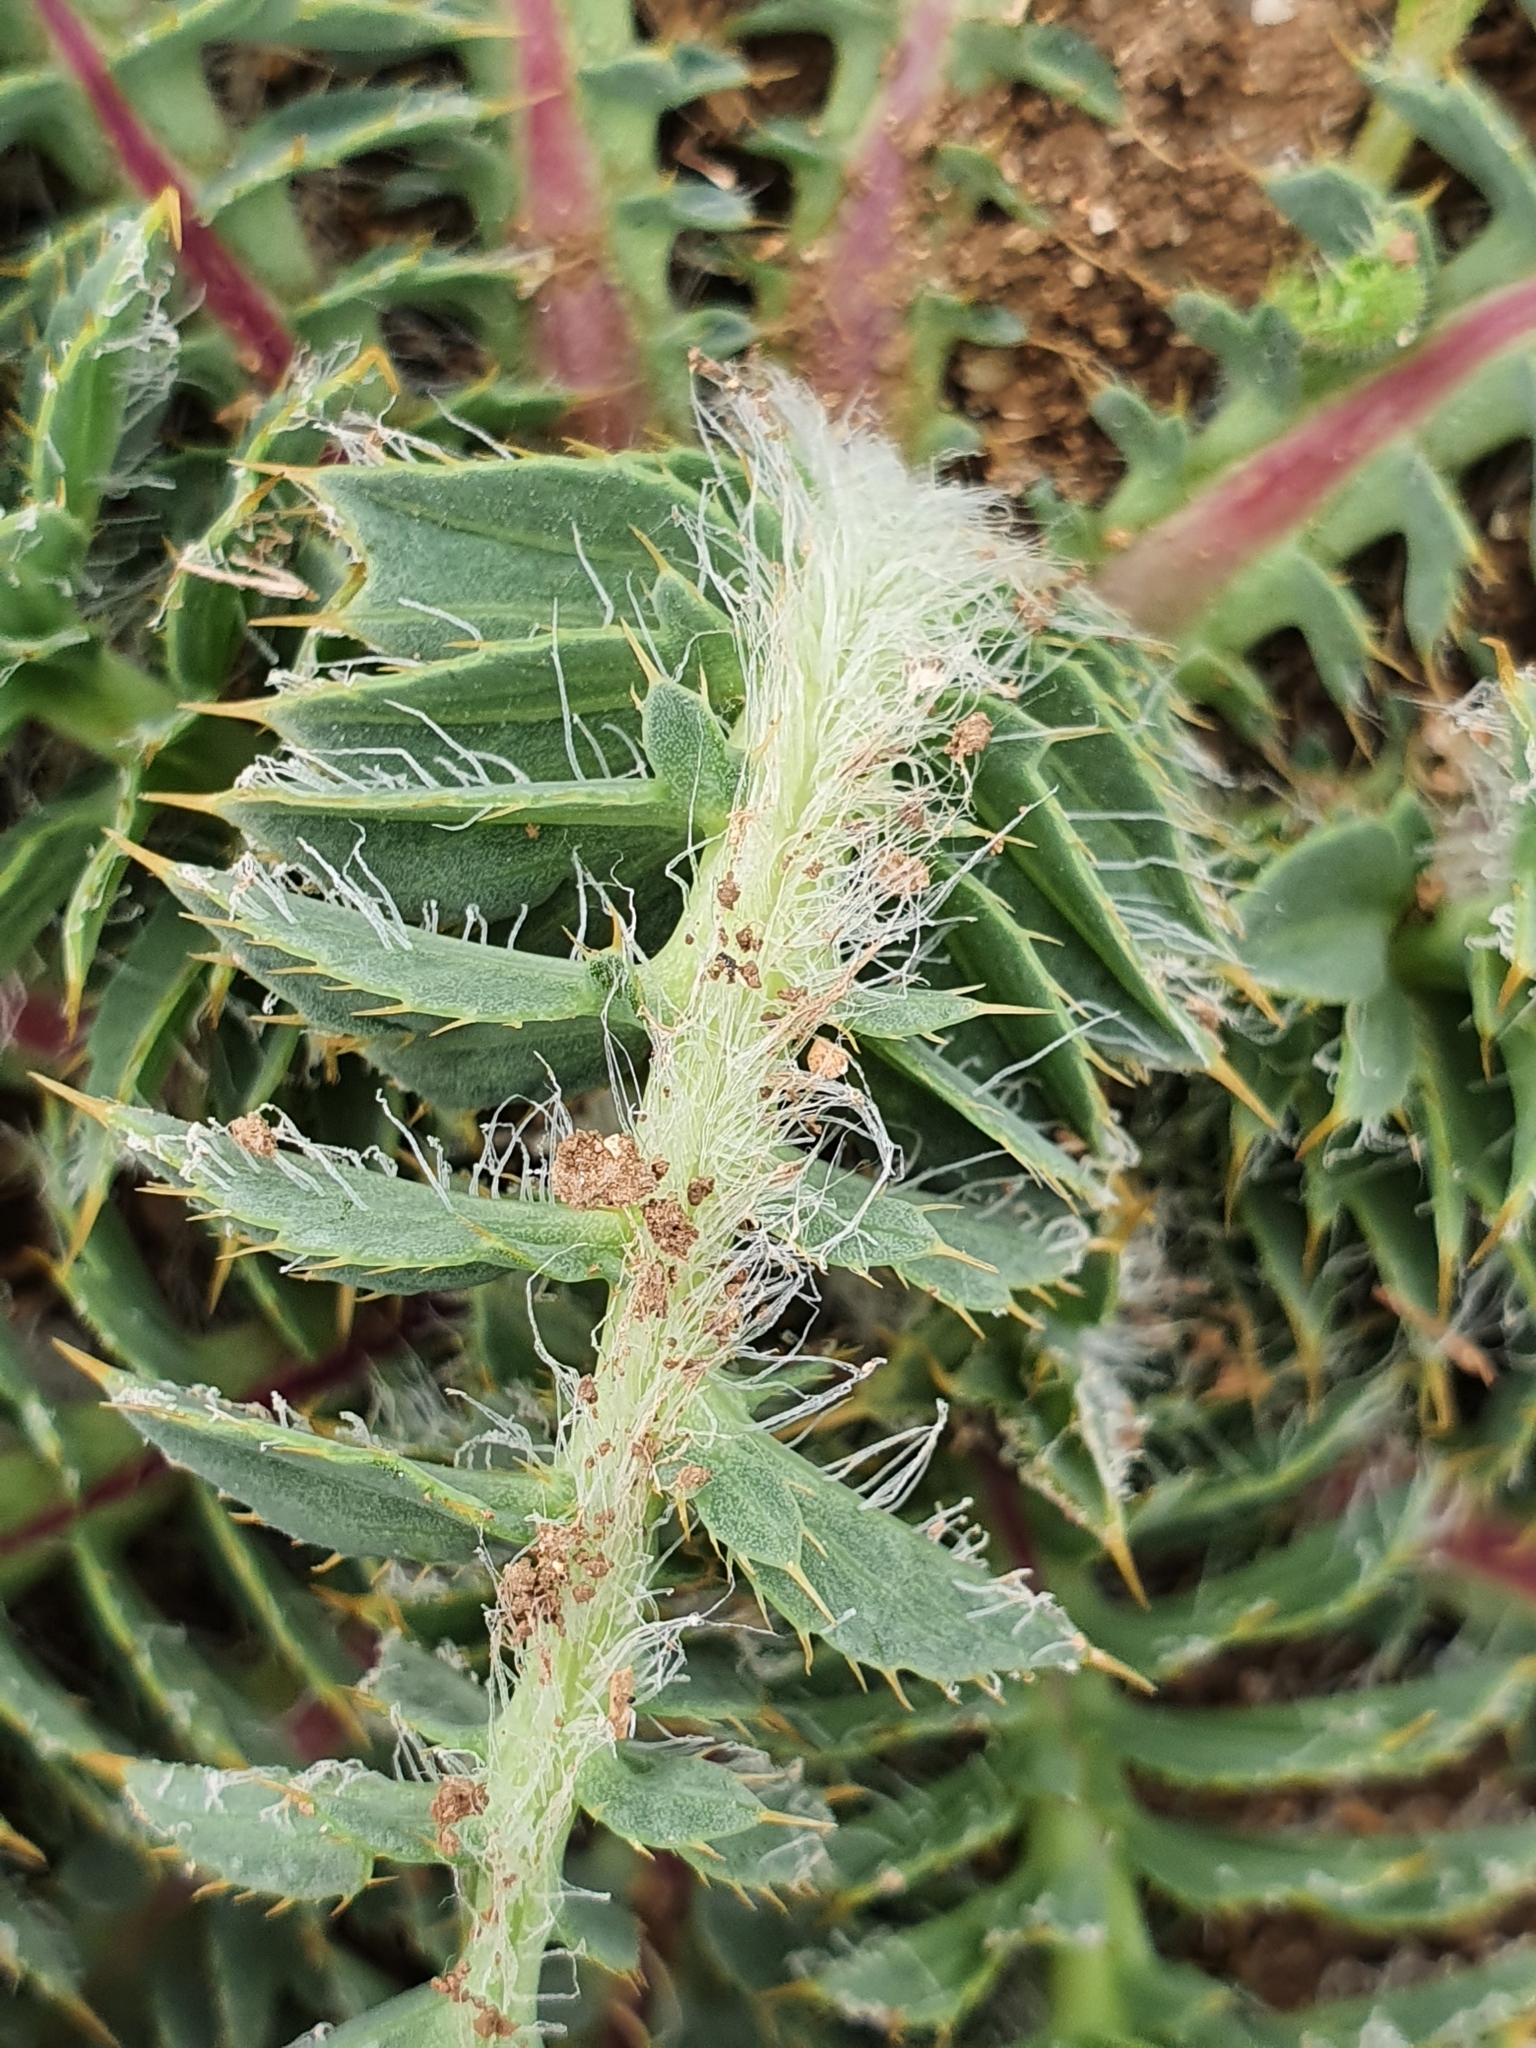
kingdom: Plantae
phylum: Tracheophyta
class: Magnoliopsida
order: Asterales
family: Asteraceae
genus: Carduncellus
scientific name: Carduncellus
